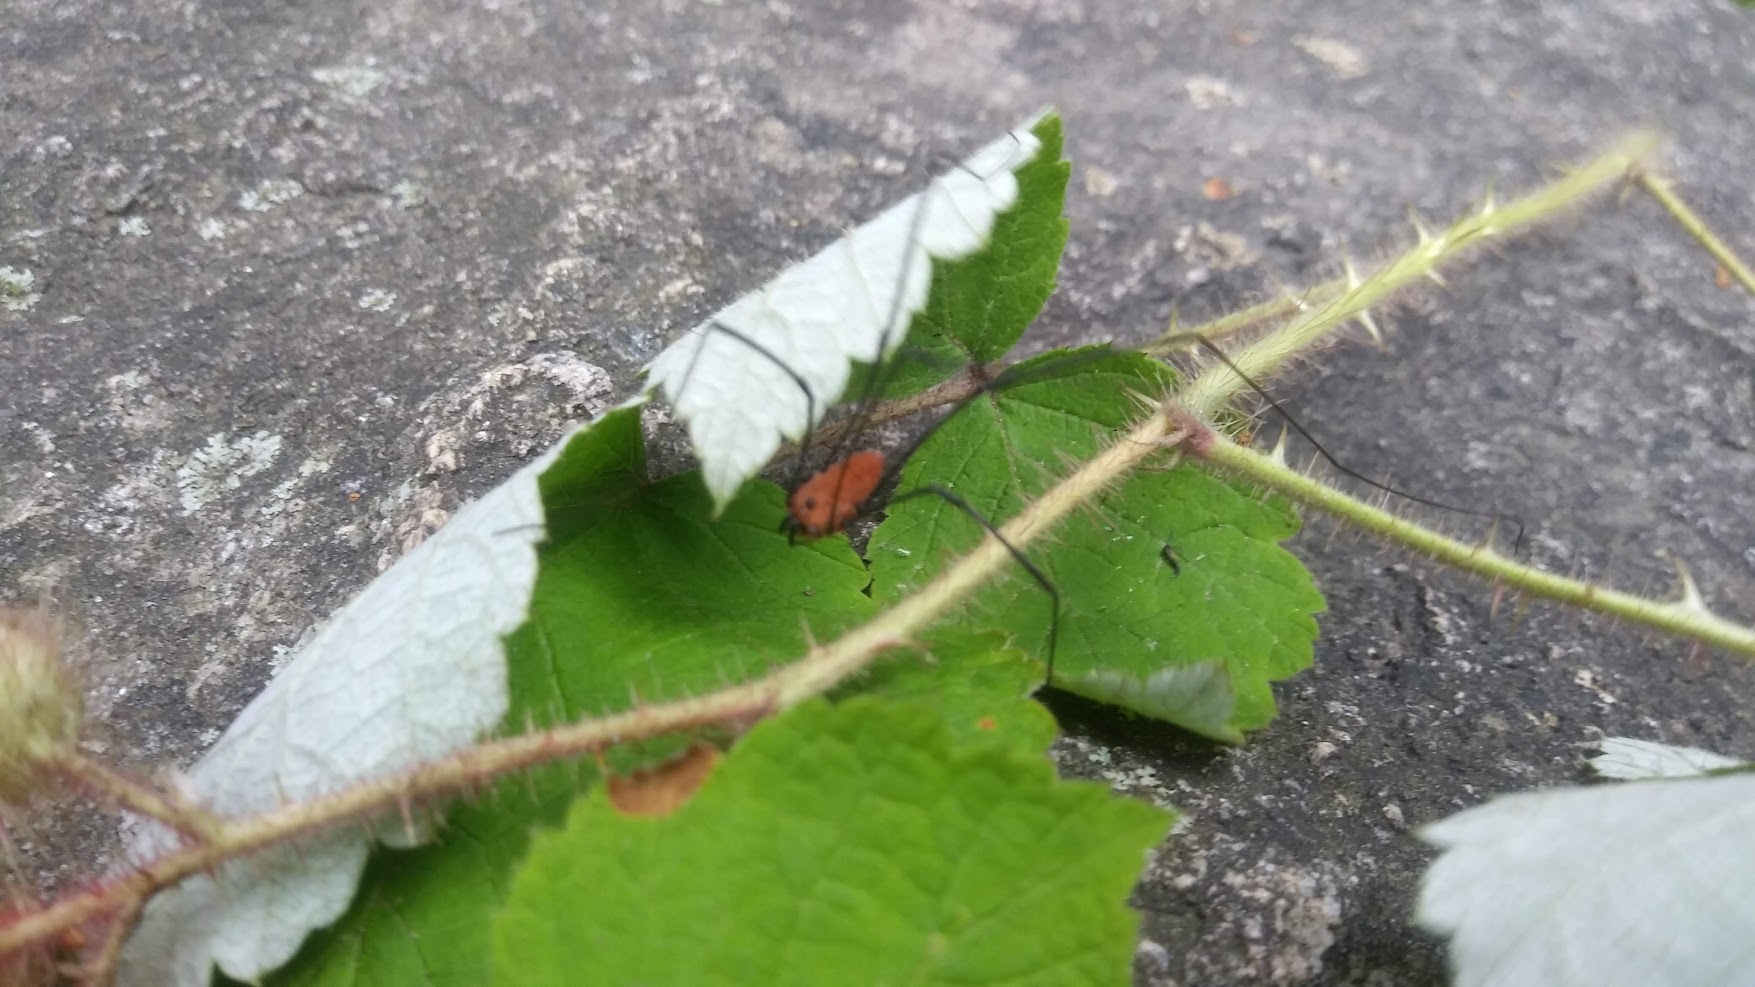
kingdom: Animalia
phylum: Arthropoda
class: Arachnida
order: Opiliones
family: Sclerosomatidae
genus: Leiobunum
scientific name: Leiobunum nigropalpi
